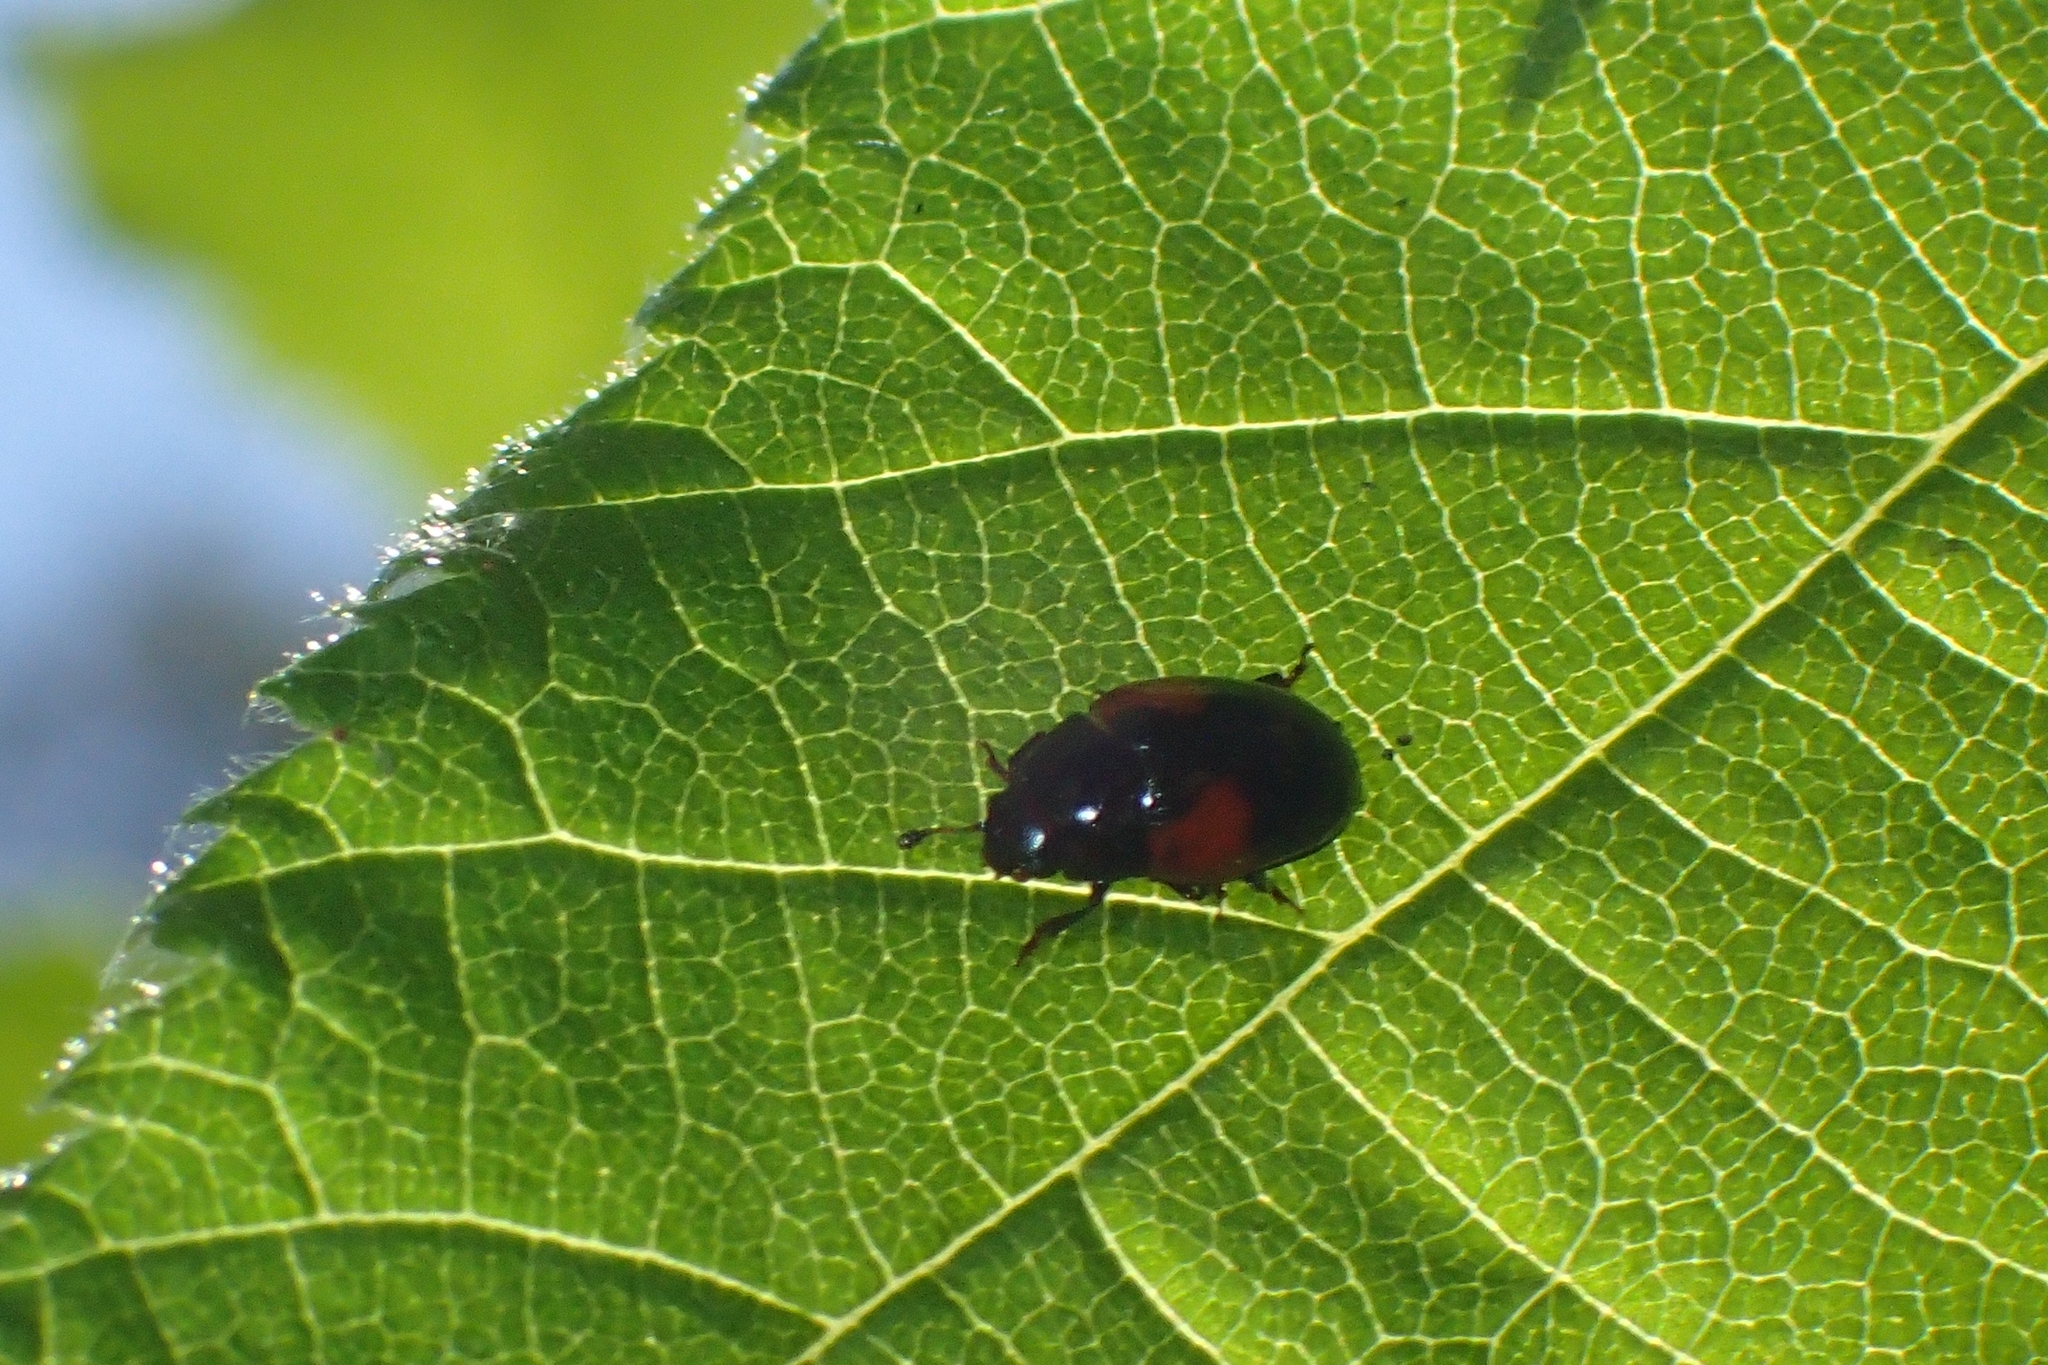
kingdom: Animalia
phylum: Arthropoda
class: Insecta
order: Coleoptera
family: Erotylidae
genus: Tritoma
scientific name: Tritoma bipustulata
